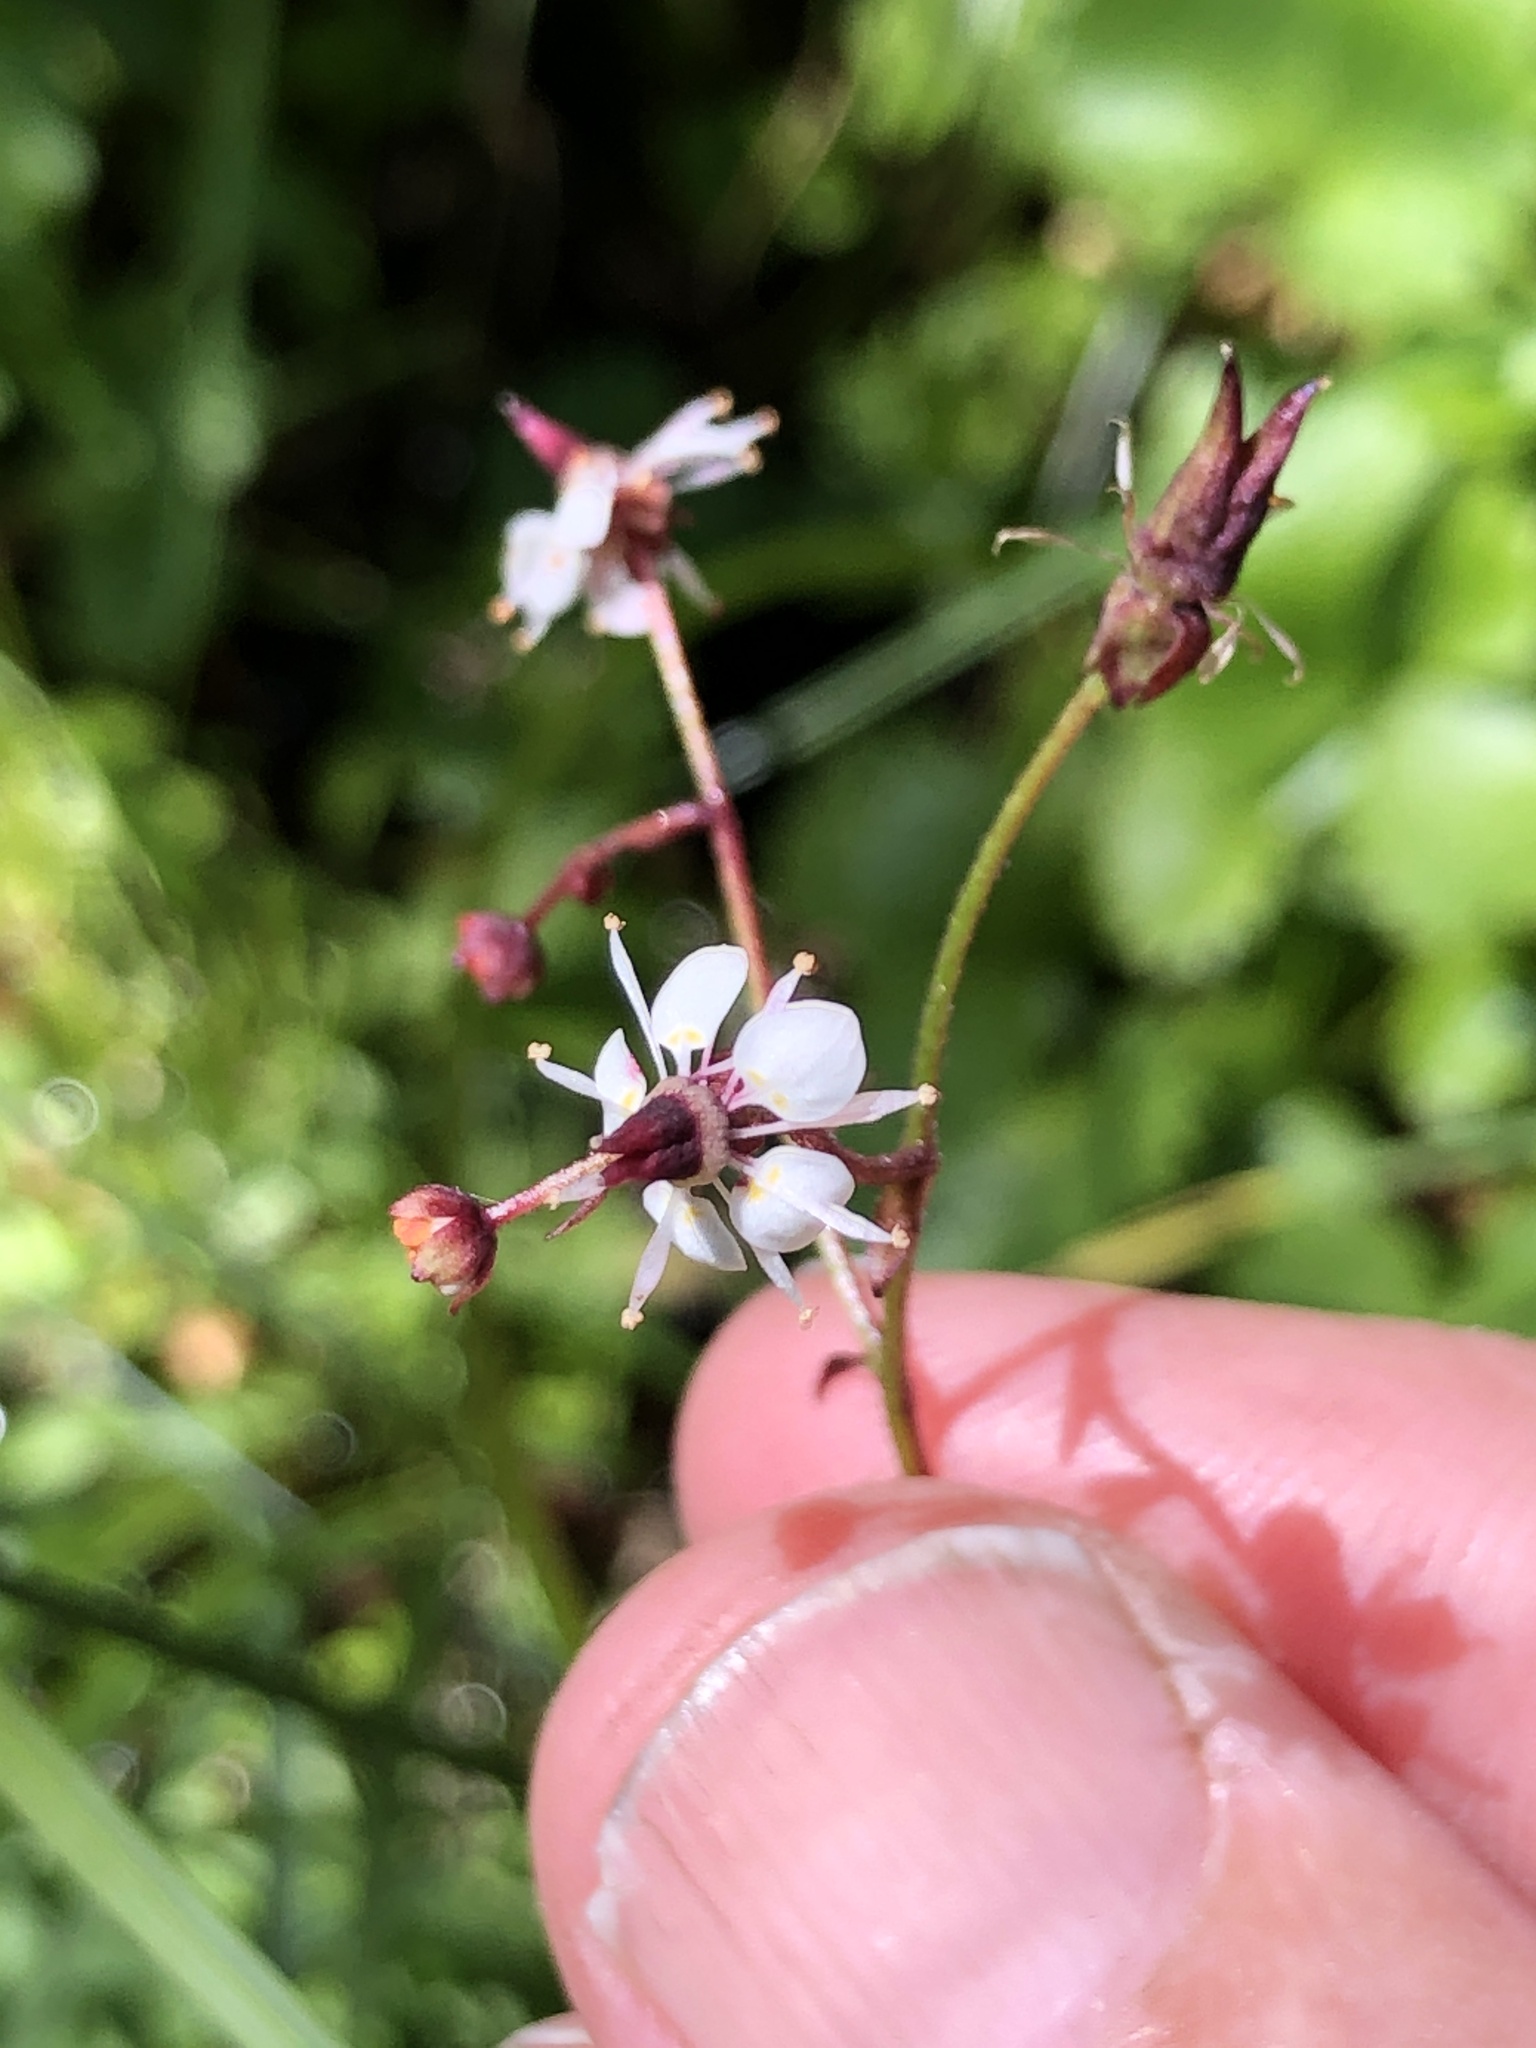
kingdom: Plantae
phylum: Tracheophyta
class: Magnoliopsida
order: Saxifragales
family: Saxifragaceae
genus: Micranthes
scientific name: Micranthes odontoloma
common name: Brook saxifrage
